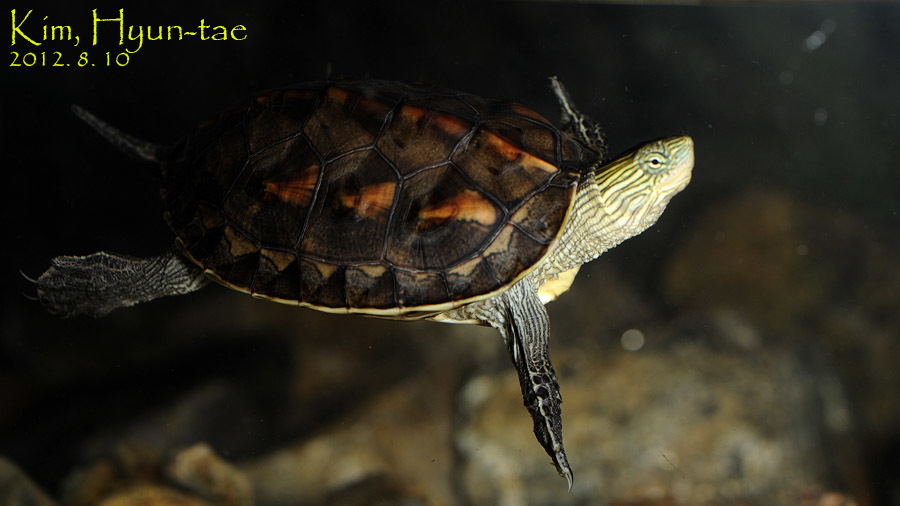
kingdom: Animalia
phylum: Chordata
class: Testudines
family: Geoemydidae
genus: Mauremys
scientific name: Mauremys sinensis
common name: Chinese stripe-necked turtle
